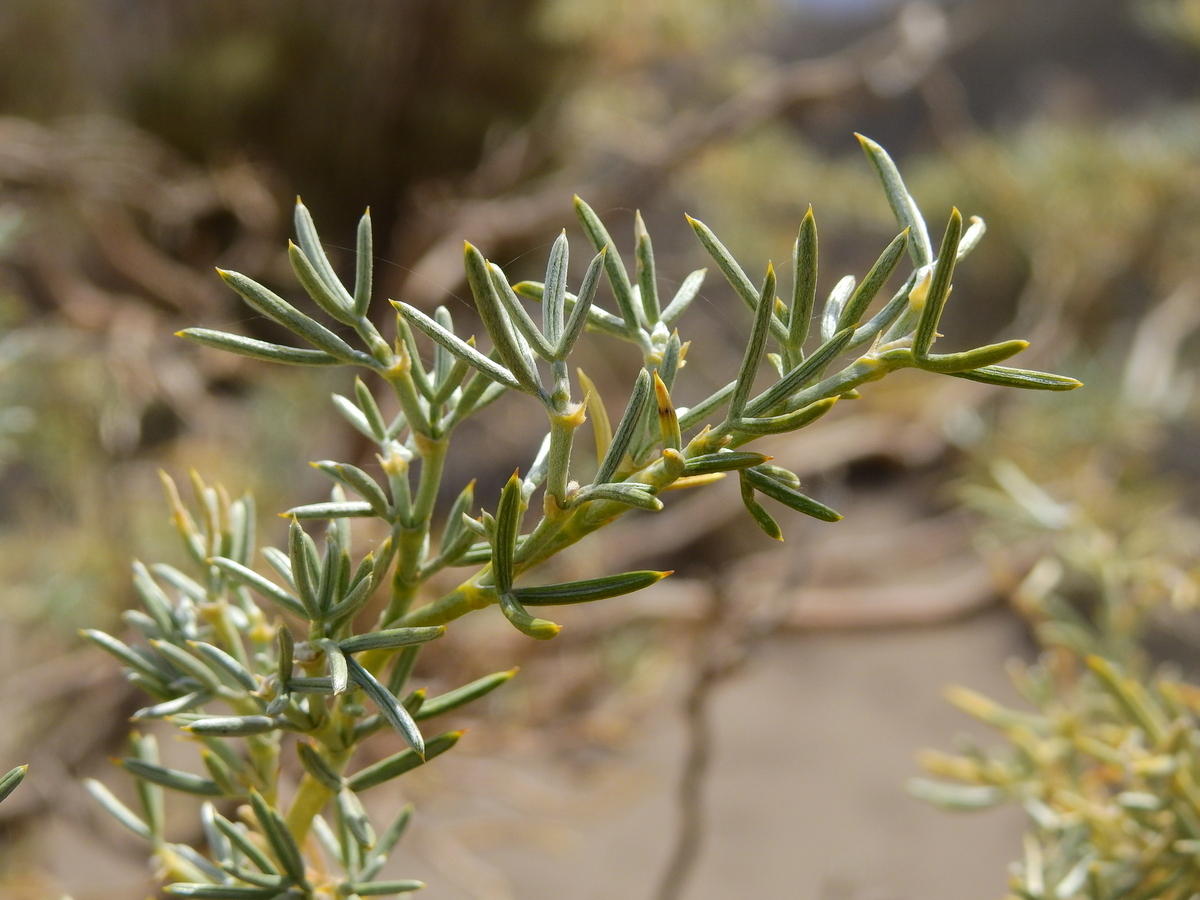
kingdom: Plantae
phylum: Tracheophyta
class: Magnoliopsida
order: Fabales
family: Fabaceae
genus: Anarthrophyllum
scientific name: Anarthrophyllum rigidum
